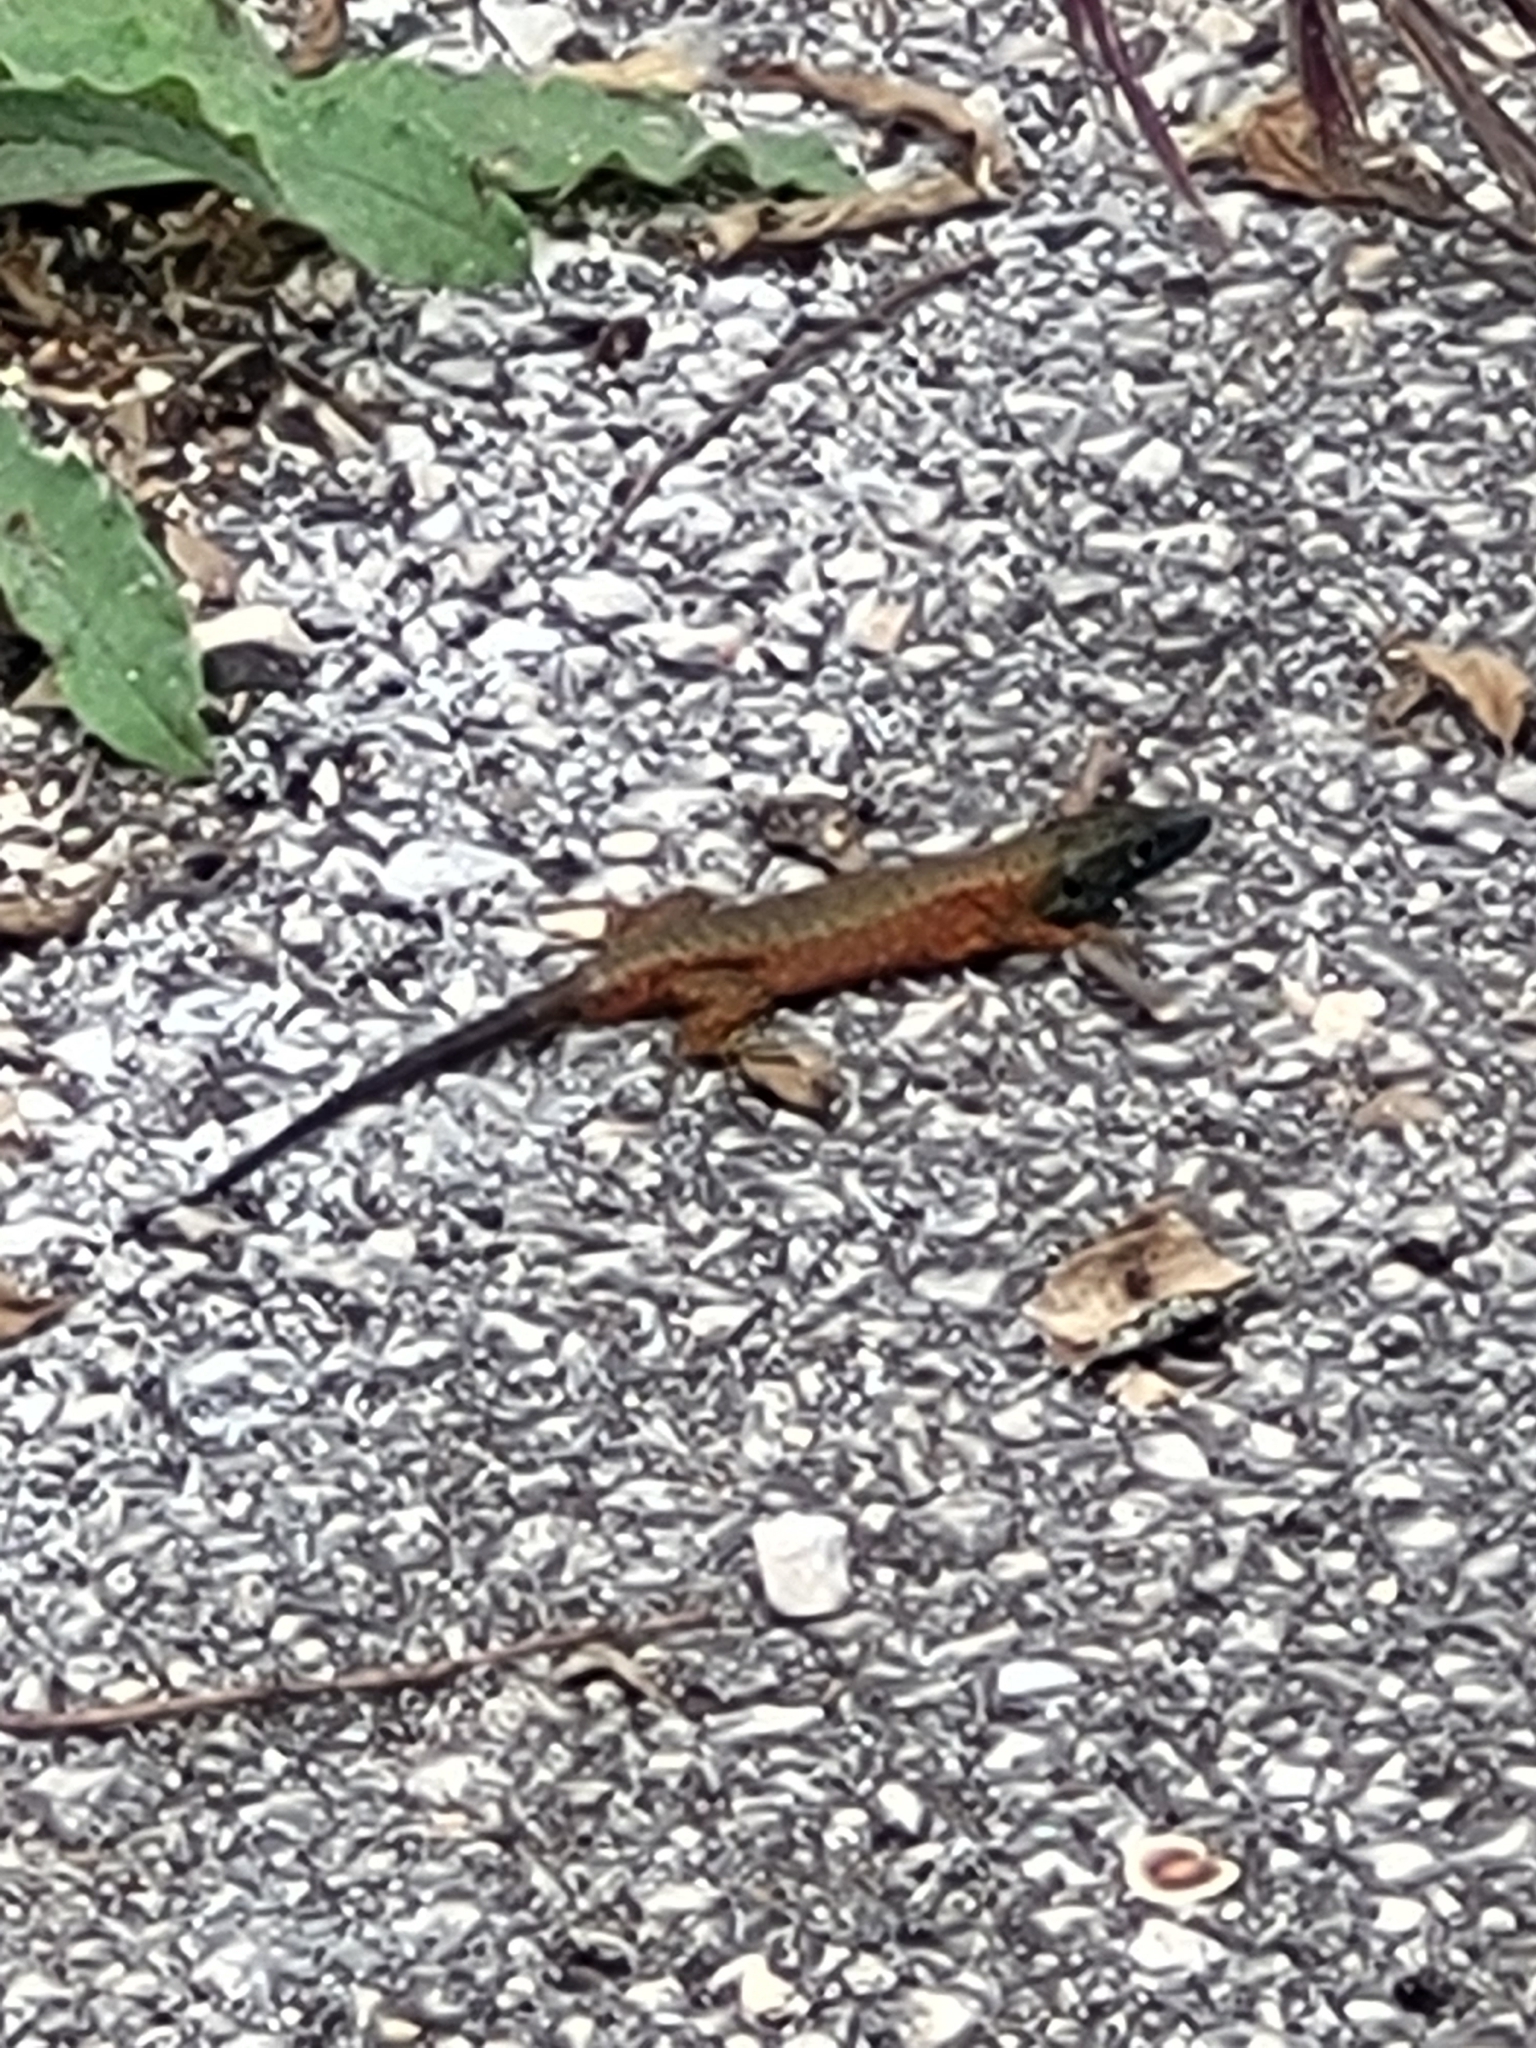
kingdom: Animalia
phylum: Chordata
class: Squamata
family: Lacertidae
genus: Algyroides
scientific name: Algyroides nigropunctatus
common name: Blue-throated keeled lizard
